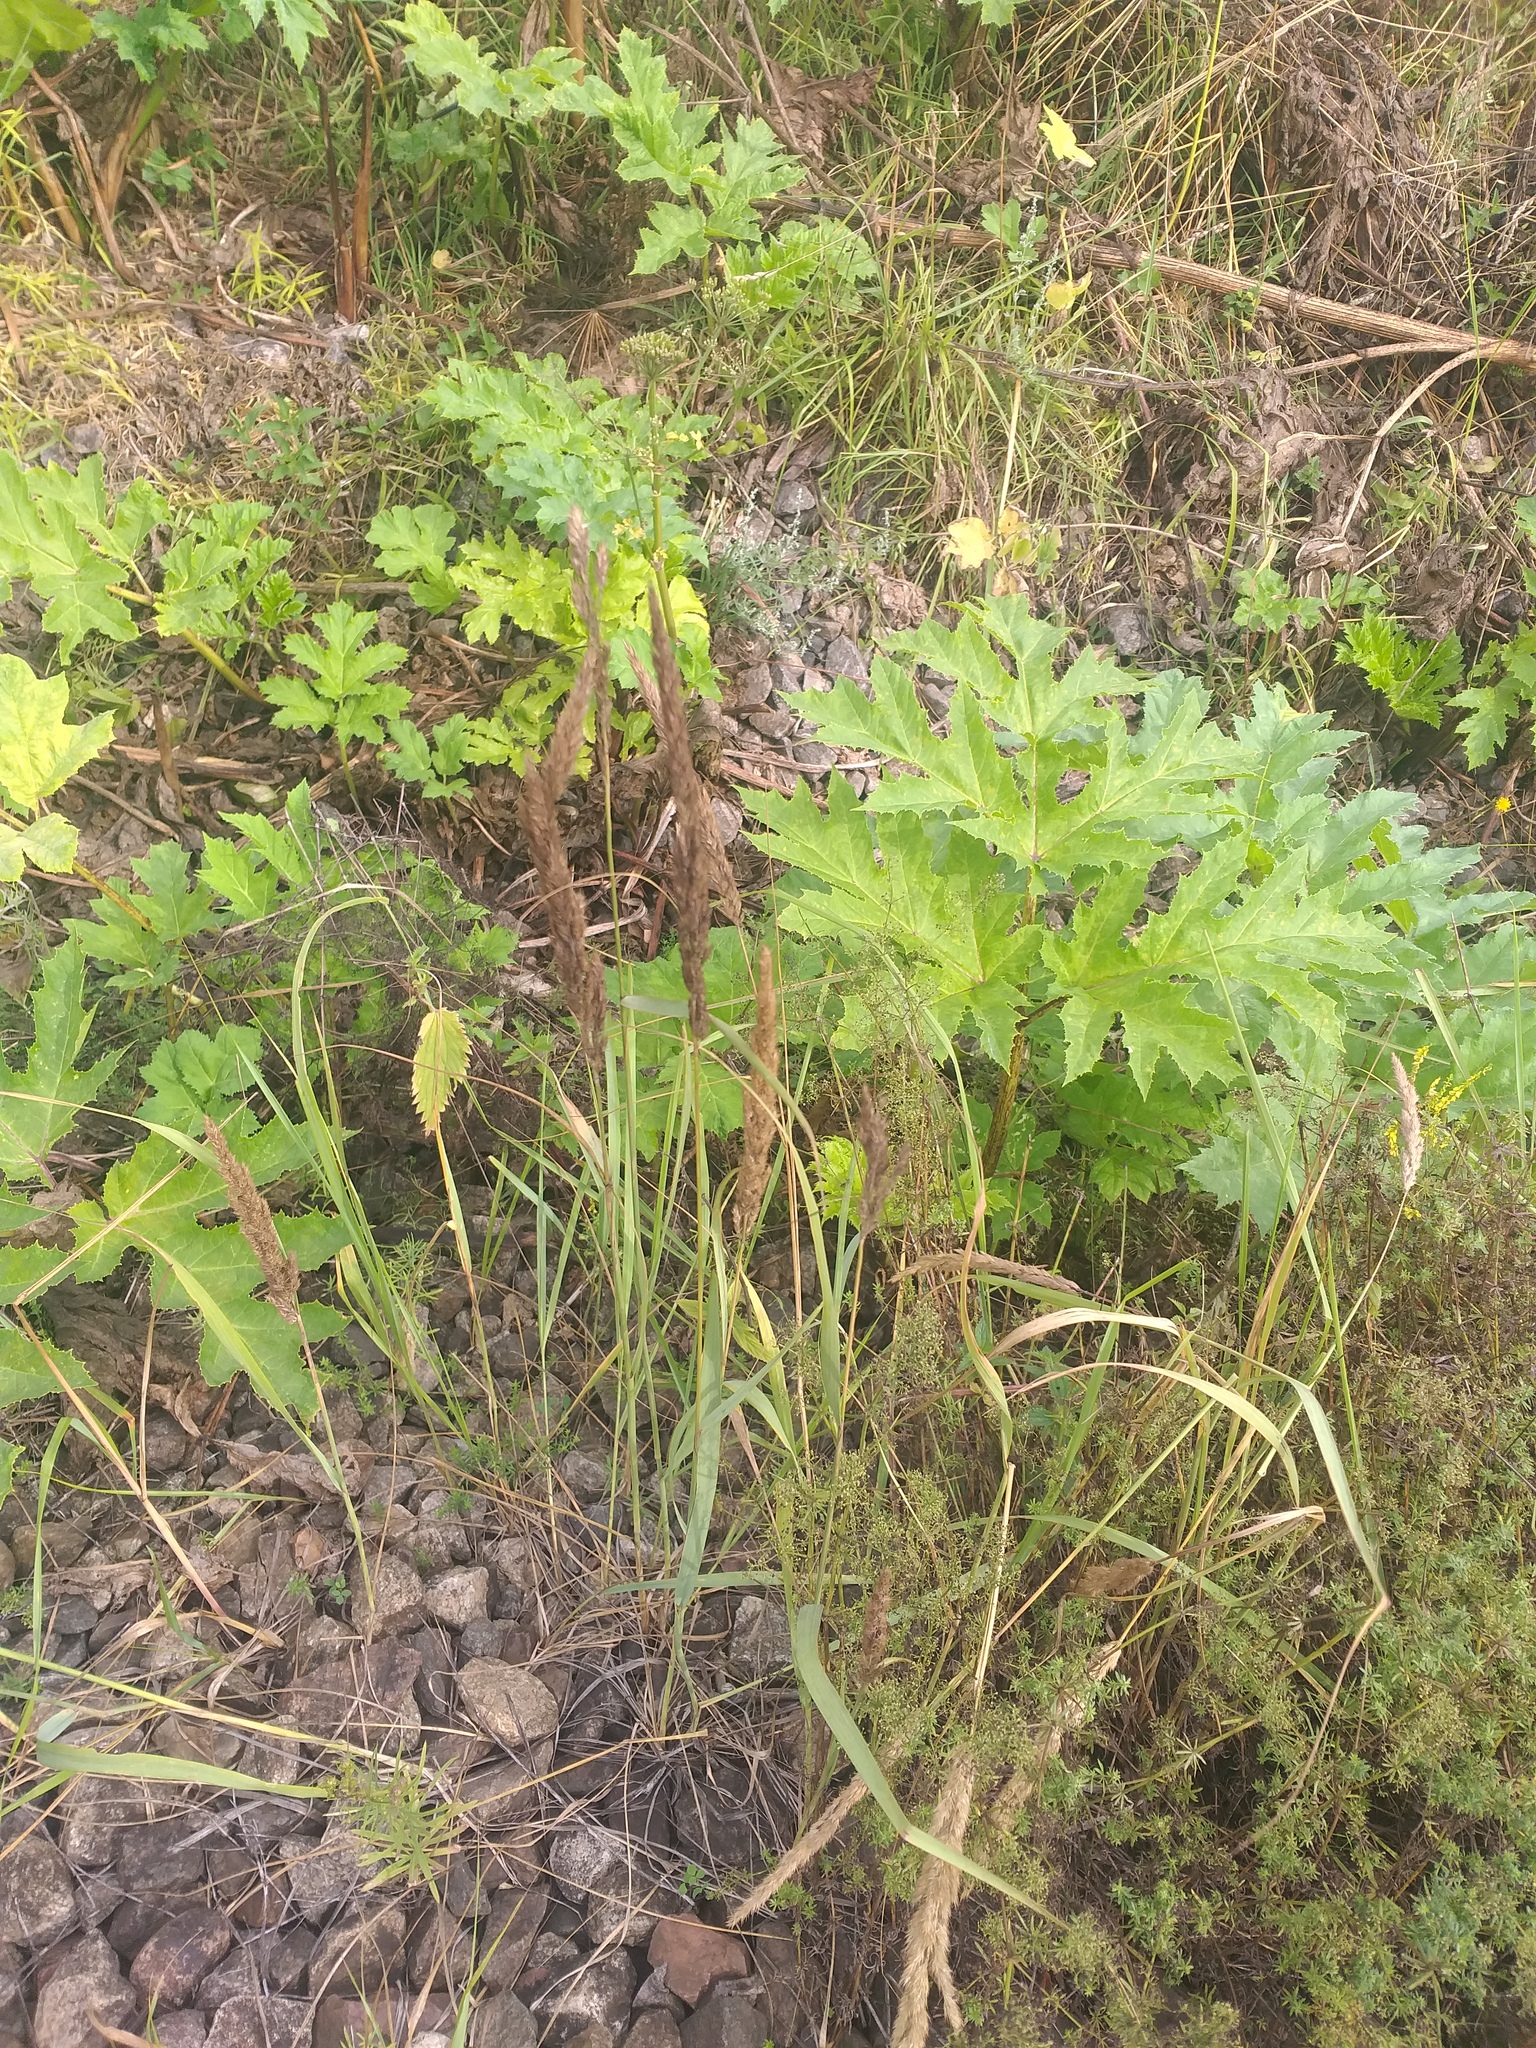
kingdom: Plantae
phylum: Tracheophyta
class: Liliopsida
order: Poales
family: Poaceae
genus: Calamagrostis
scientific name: Calamagrostis epigejos
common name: Wood small-reed
